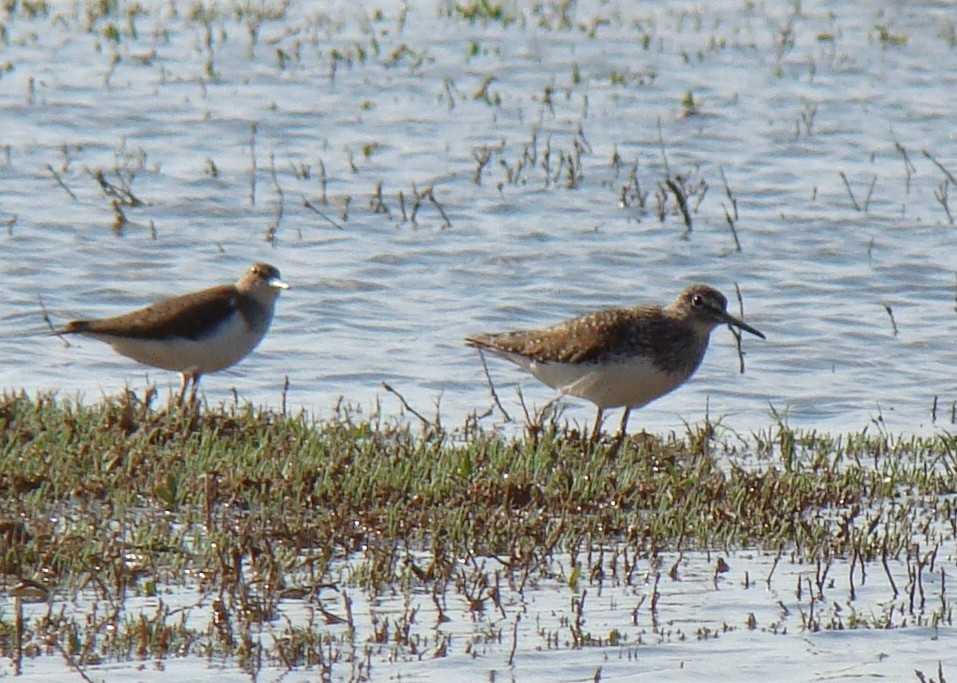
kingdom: Animalia
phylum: Chordata
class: Aves
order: Charadriiformes
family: Scolopacidae
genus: Tringa
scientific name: Tringa ochropus
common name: Green sandpiper
